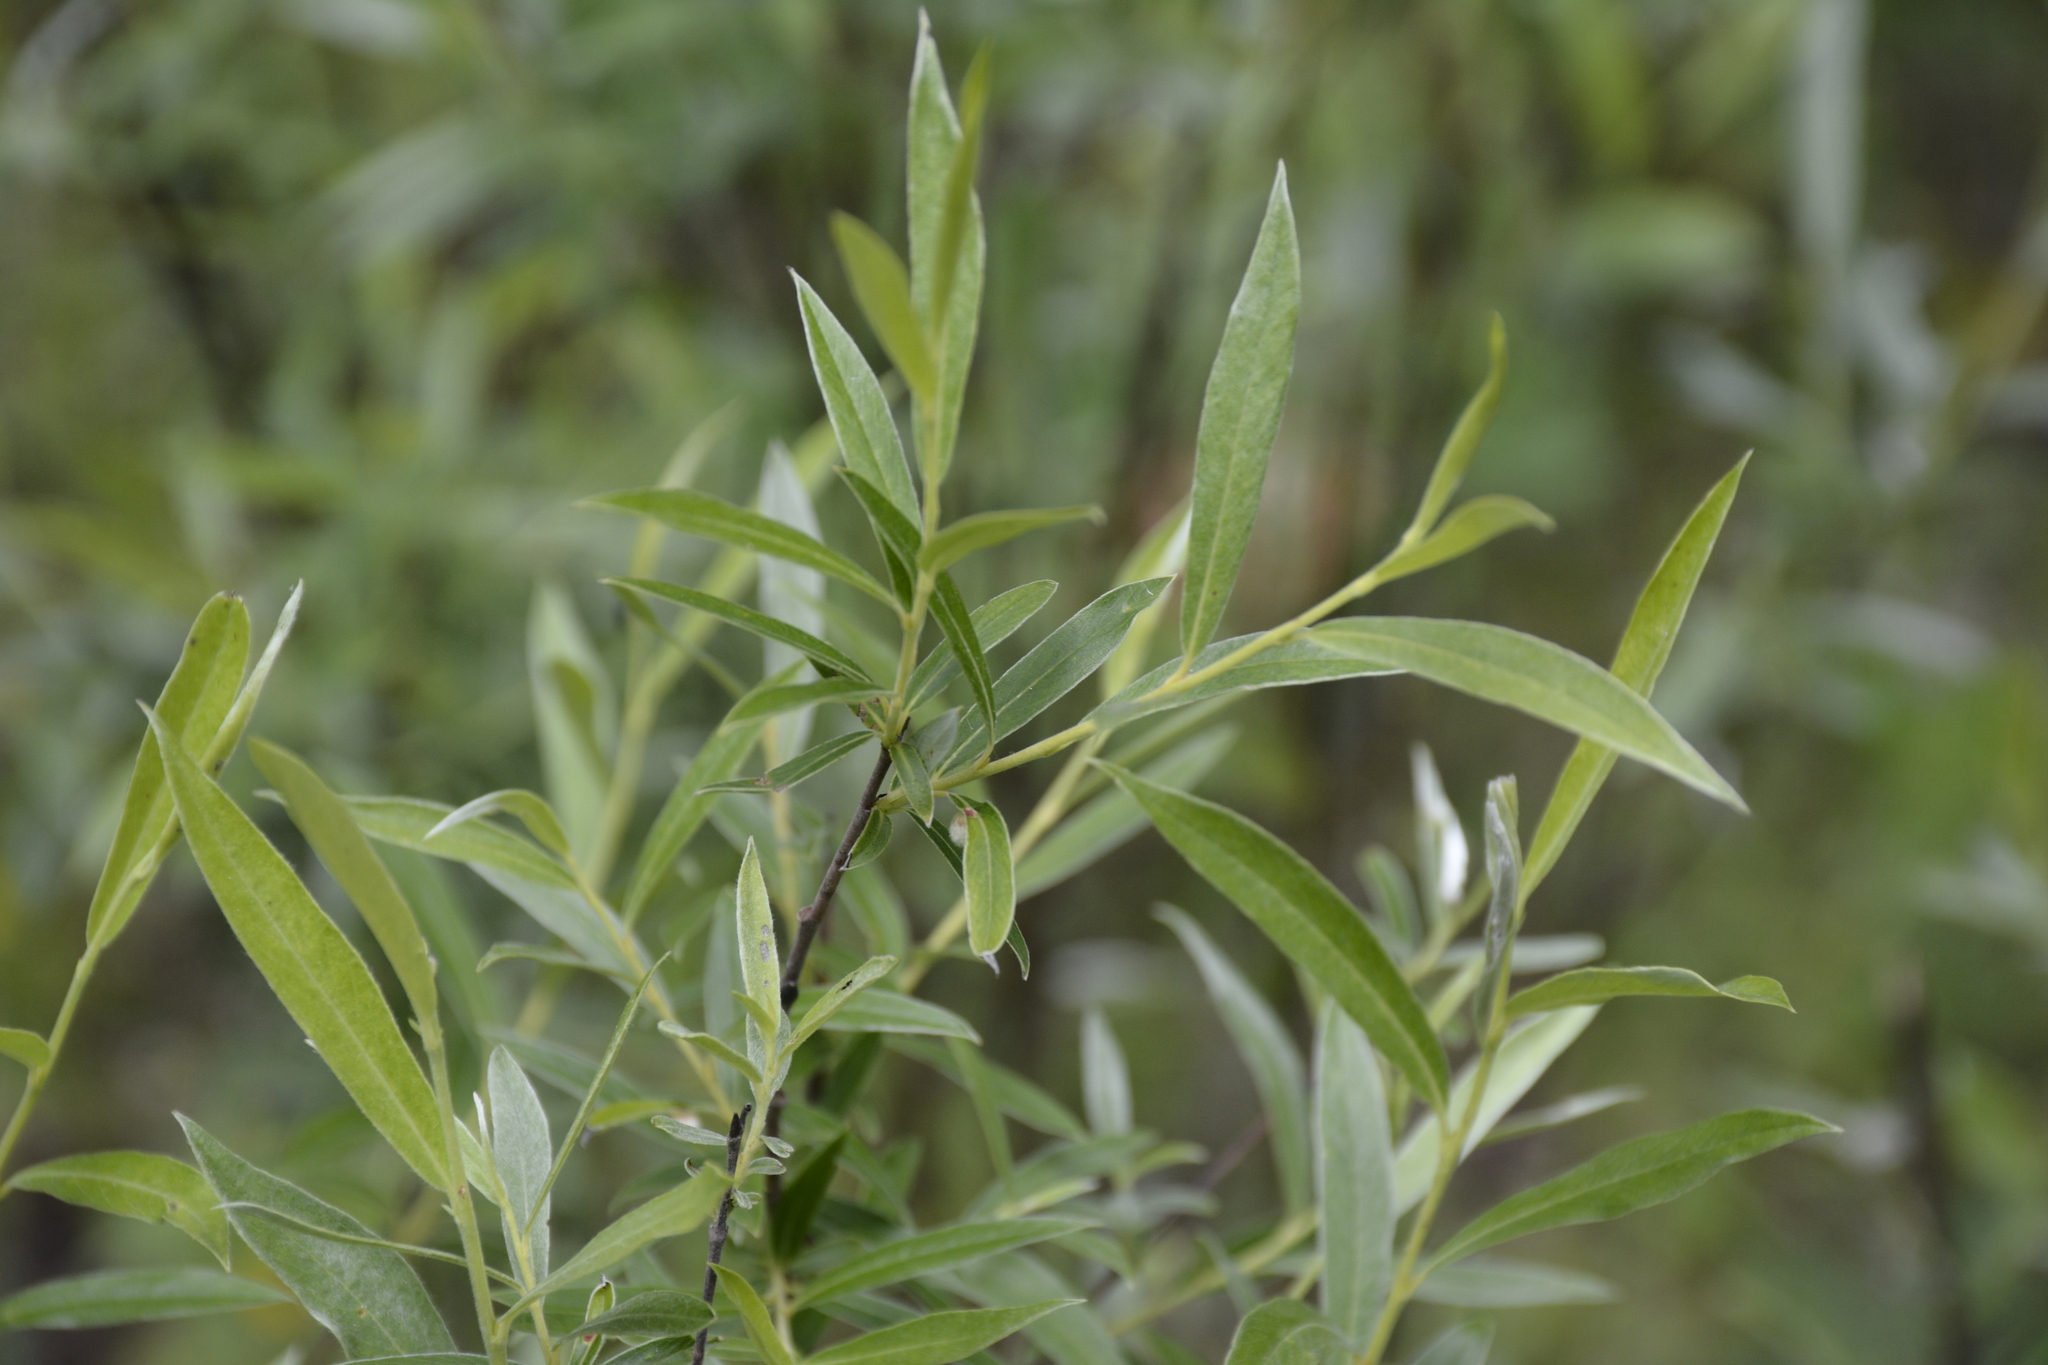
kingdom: Plantae
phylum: Tracheophyta
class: Magnoliopsida
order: Malpighiales
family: Salicaceae
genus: Salix
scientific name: Salix rosmarinifolia
